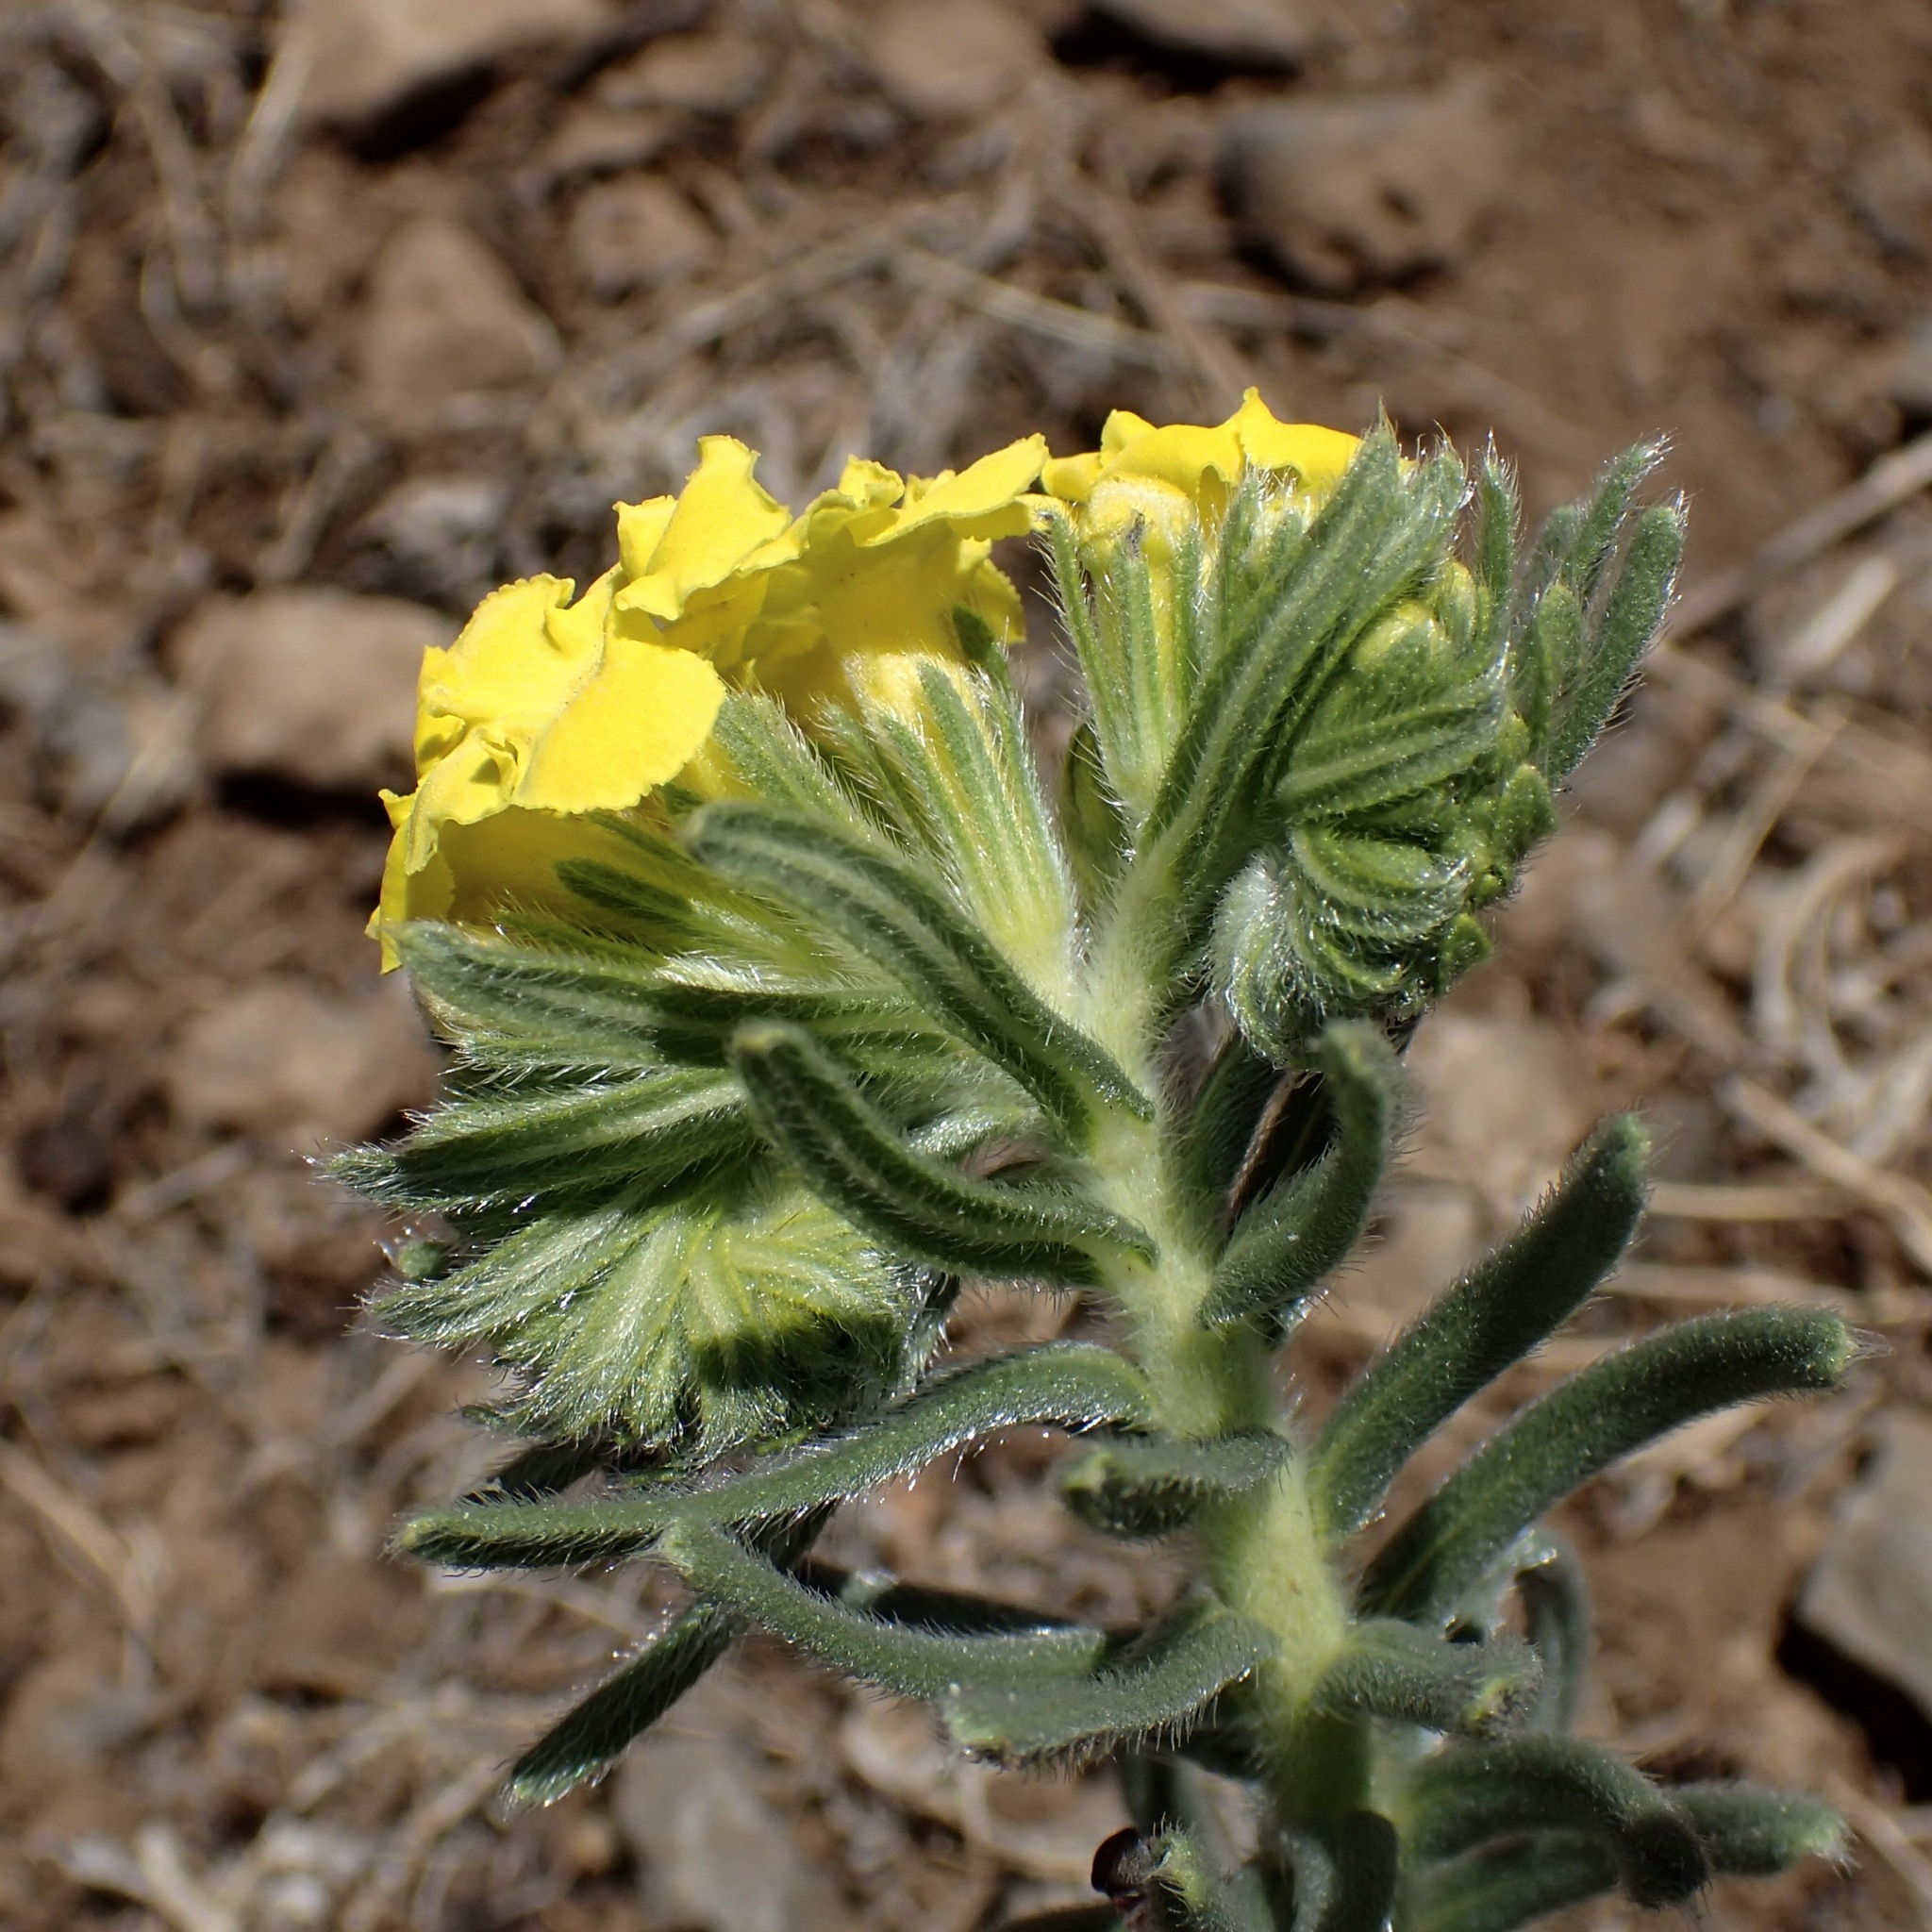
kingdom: Plantae
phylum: Tracheophyta
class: Magnoliopsida
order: Boraginales
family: Boraginaceae
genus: Lithospermum
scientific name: Lithospermum cobrense
